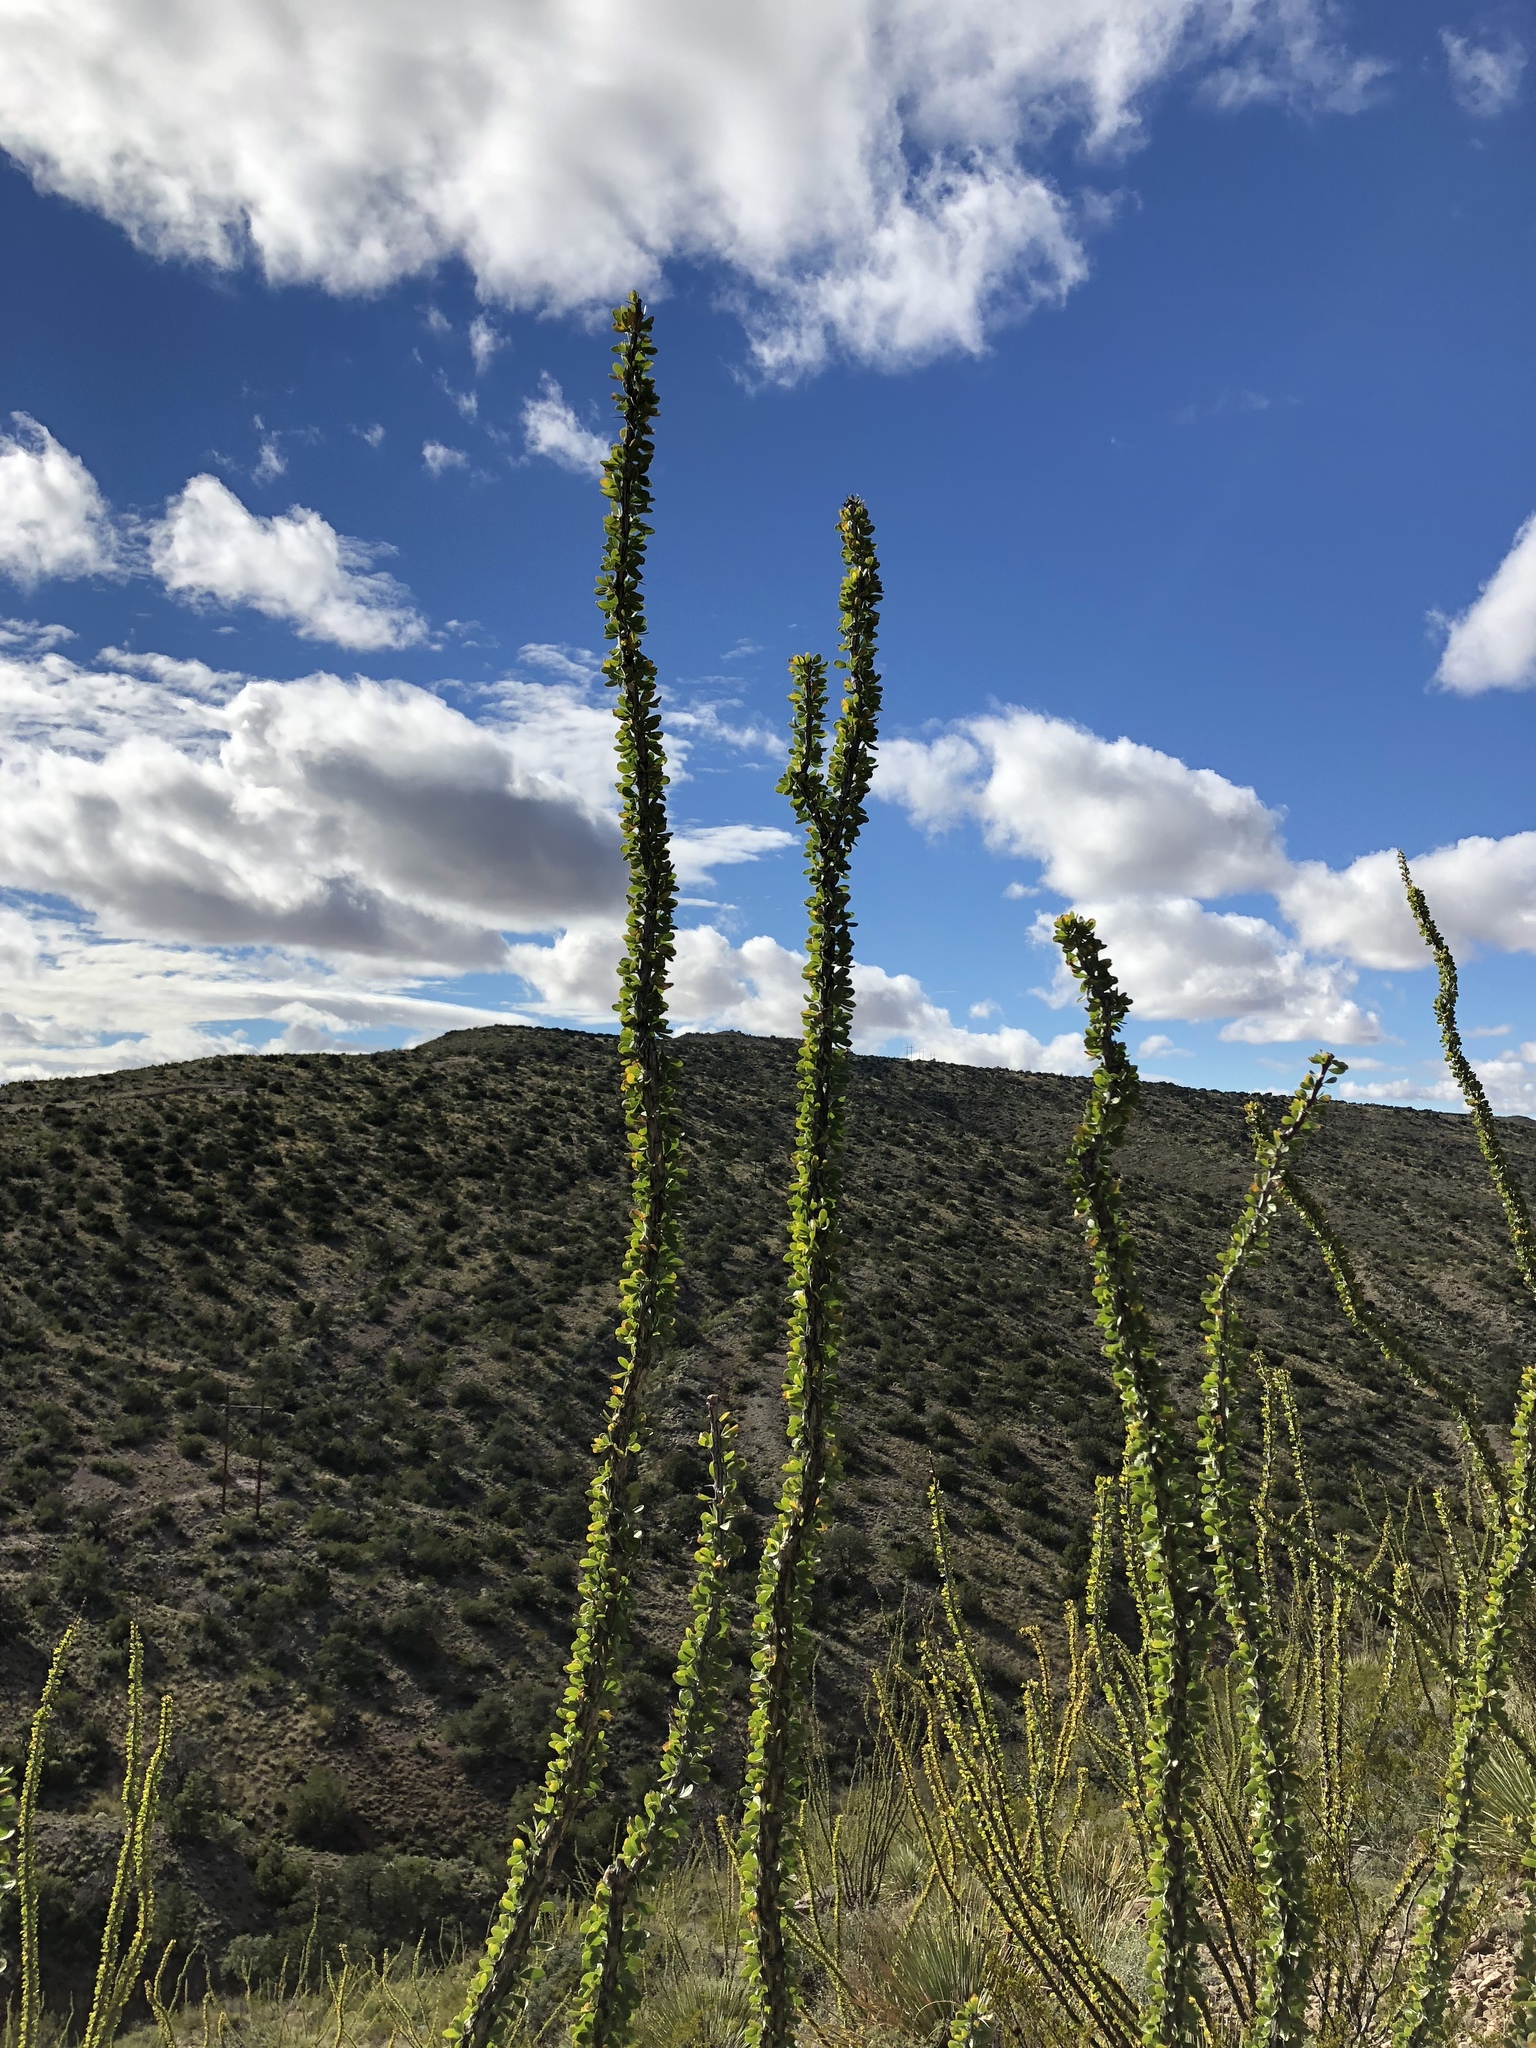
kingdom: Plantae
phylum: Tracheophyta
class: Magnoliopsida
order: Ericales
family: Fouquieriaceae
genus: Fouquieria
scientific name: Fouquieria splendens
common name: Vine-cactus
